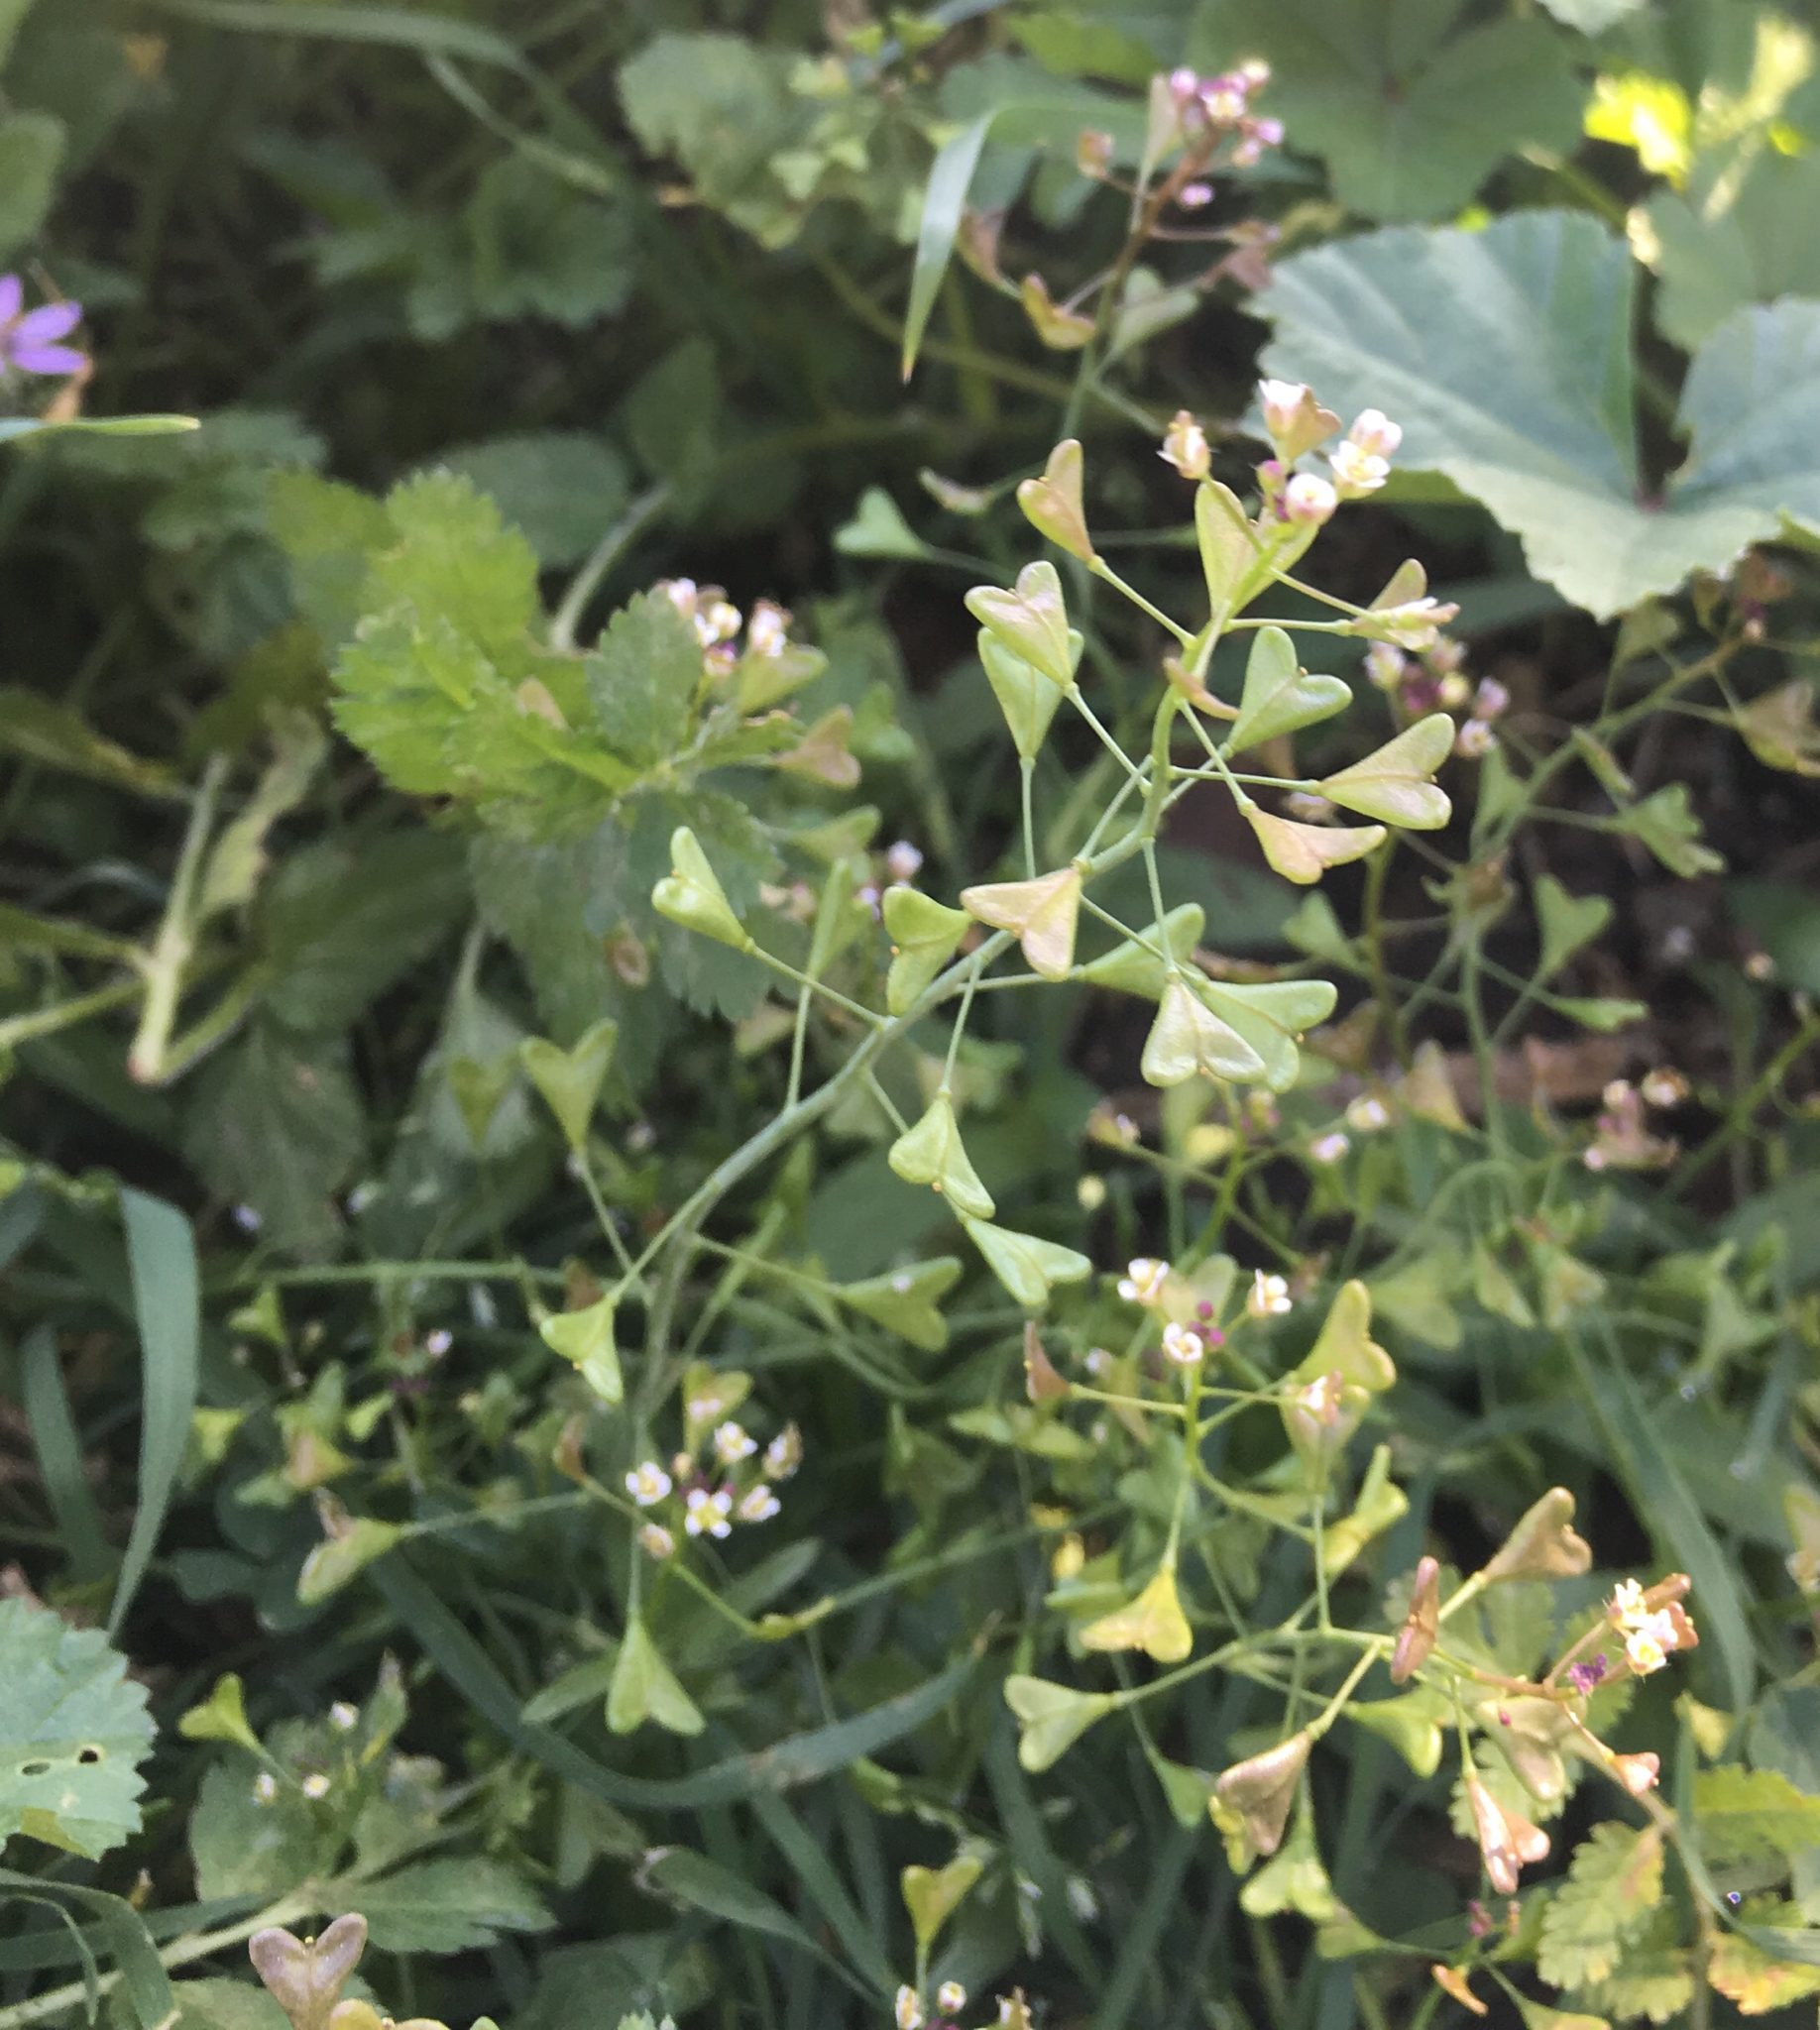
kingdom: Plantae
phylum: Tracheophyta
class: Magnoliopsida
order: Brassicales
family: Brassicaceae
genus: Capsella
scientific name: Capsella bursa-pastoris
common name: Shepherd's purse
